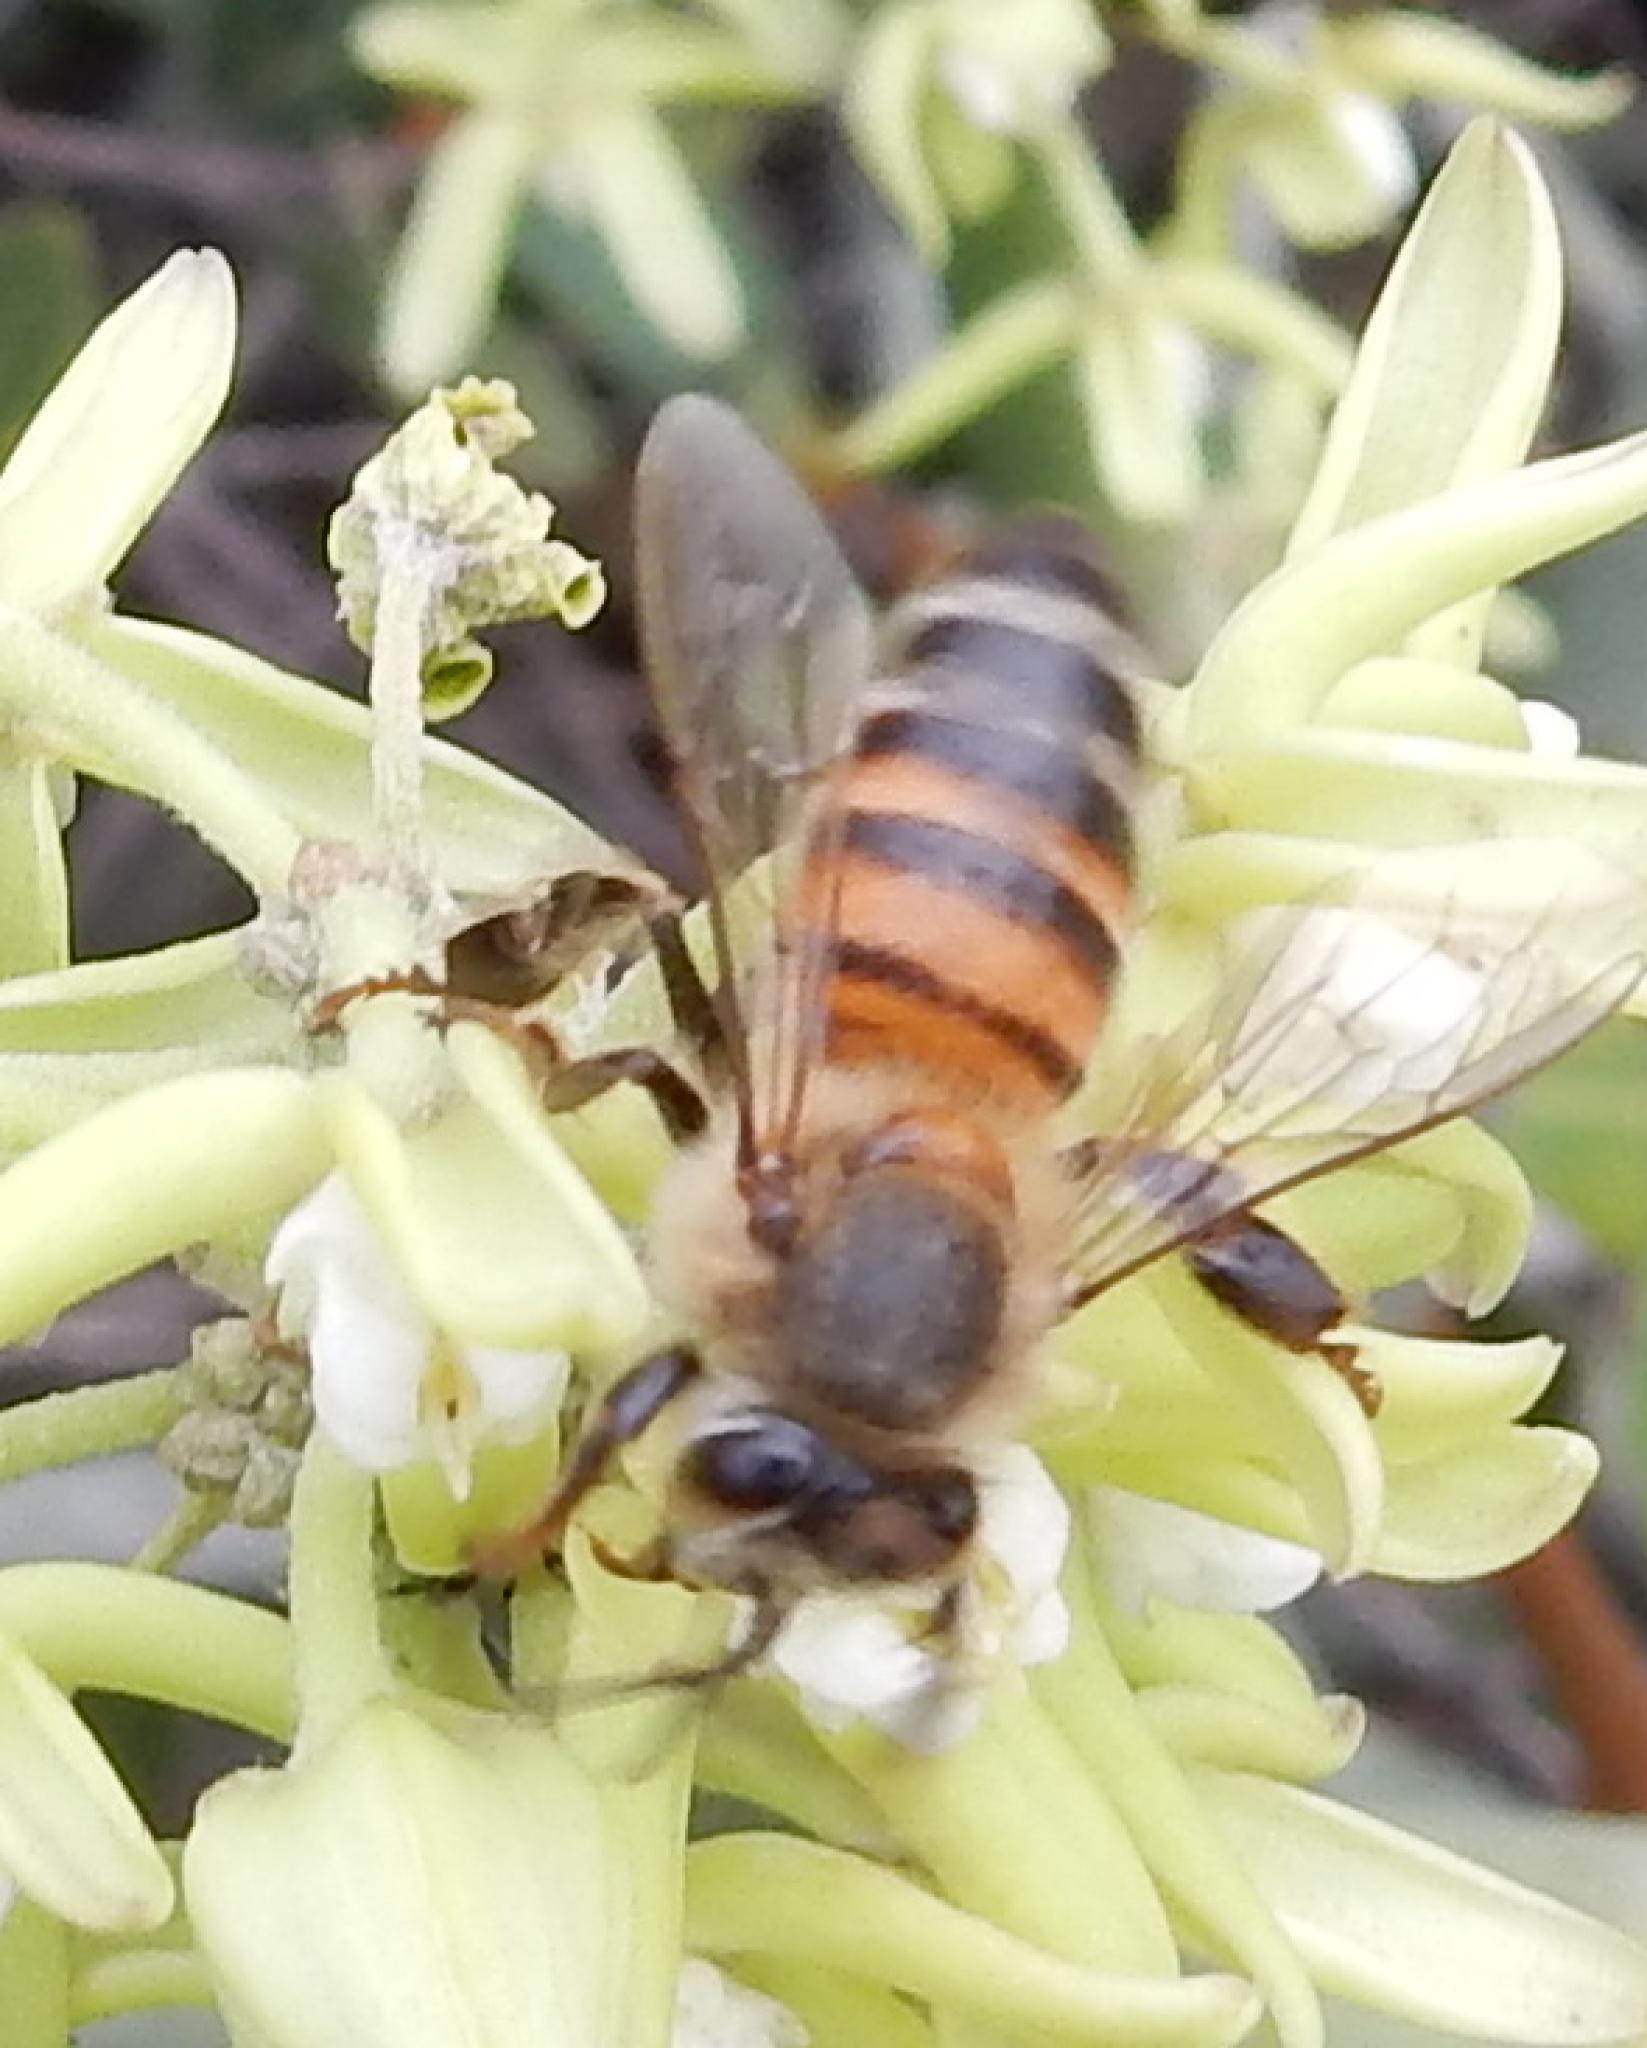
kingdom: Animalia
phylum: Arthropoda
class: Insecta
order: Hymenoptera
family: Apidae
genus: Apis
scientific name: Apis mellifera
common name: Honey bee
